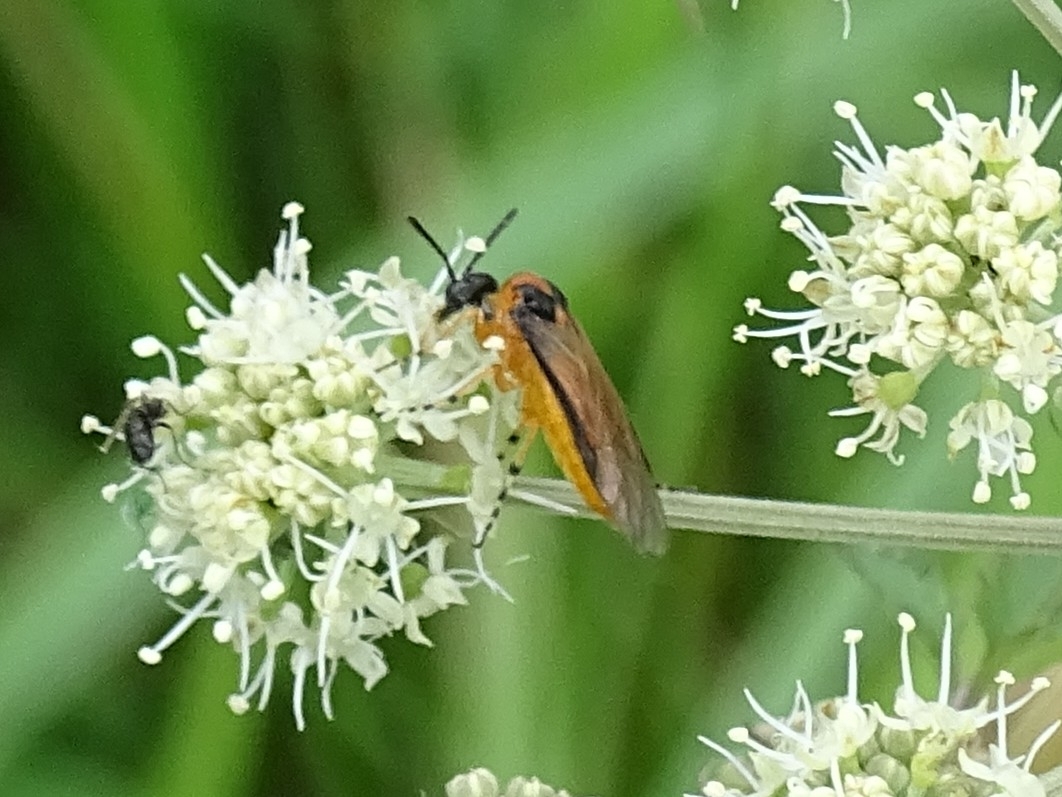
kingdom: Animalia
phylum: Arthropoda
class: Insecta
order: Hymenoptera
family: Tenthredinidae
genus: Athalia
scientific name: Athalia rosae
